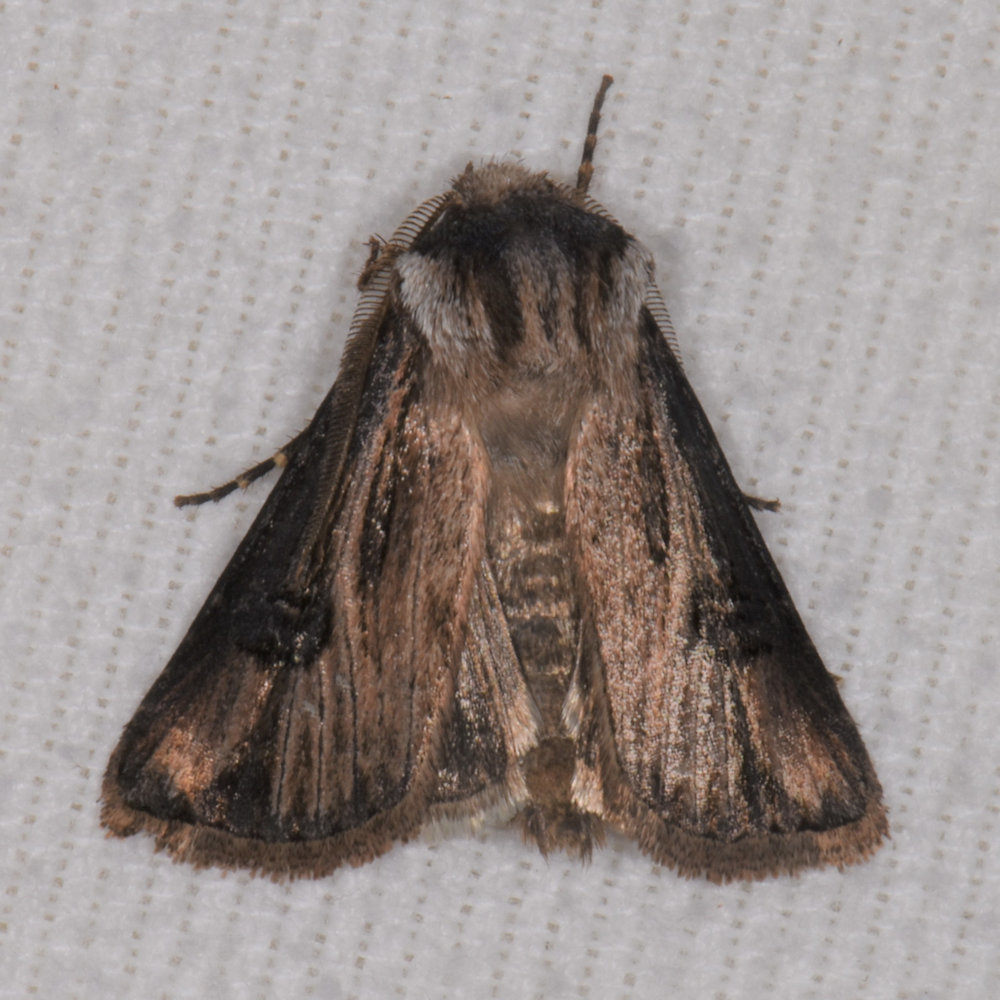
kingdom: Animalia
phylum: Arthropoda
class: Insecta
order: Lepidoptera
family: Noctuidae
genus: Agrotis
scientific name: Agrotis venerabilis
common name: Venerable dart
